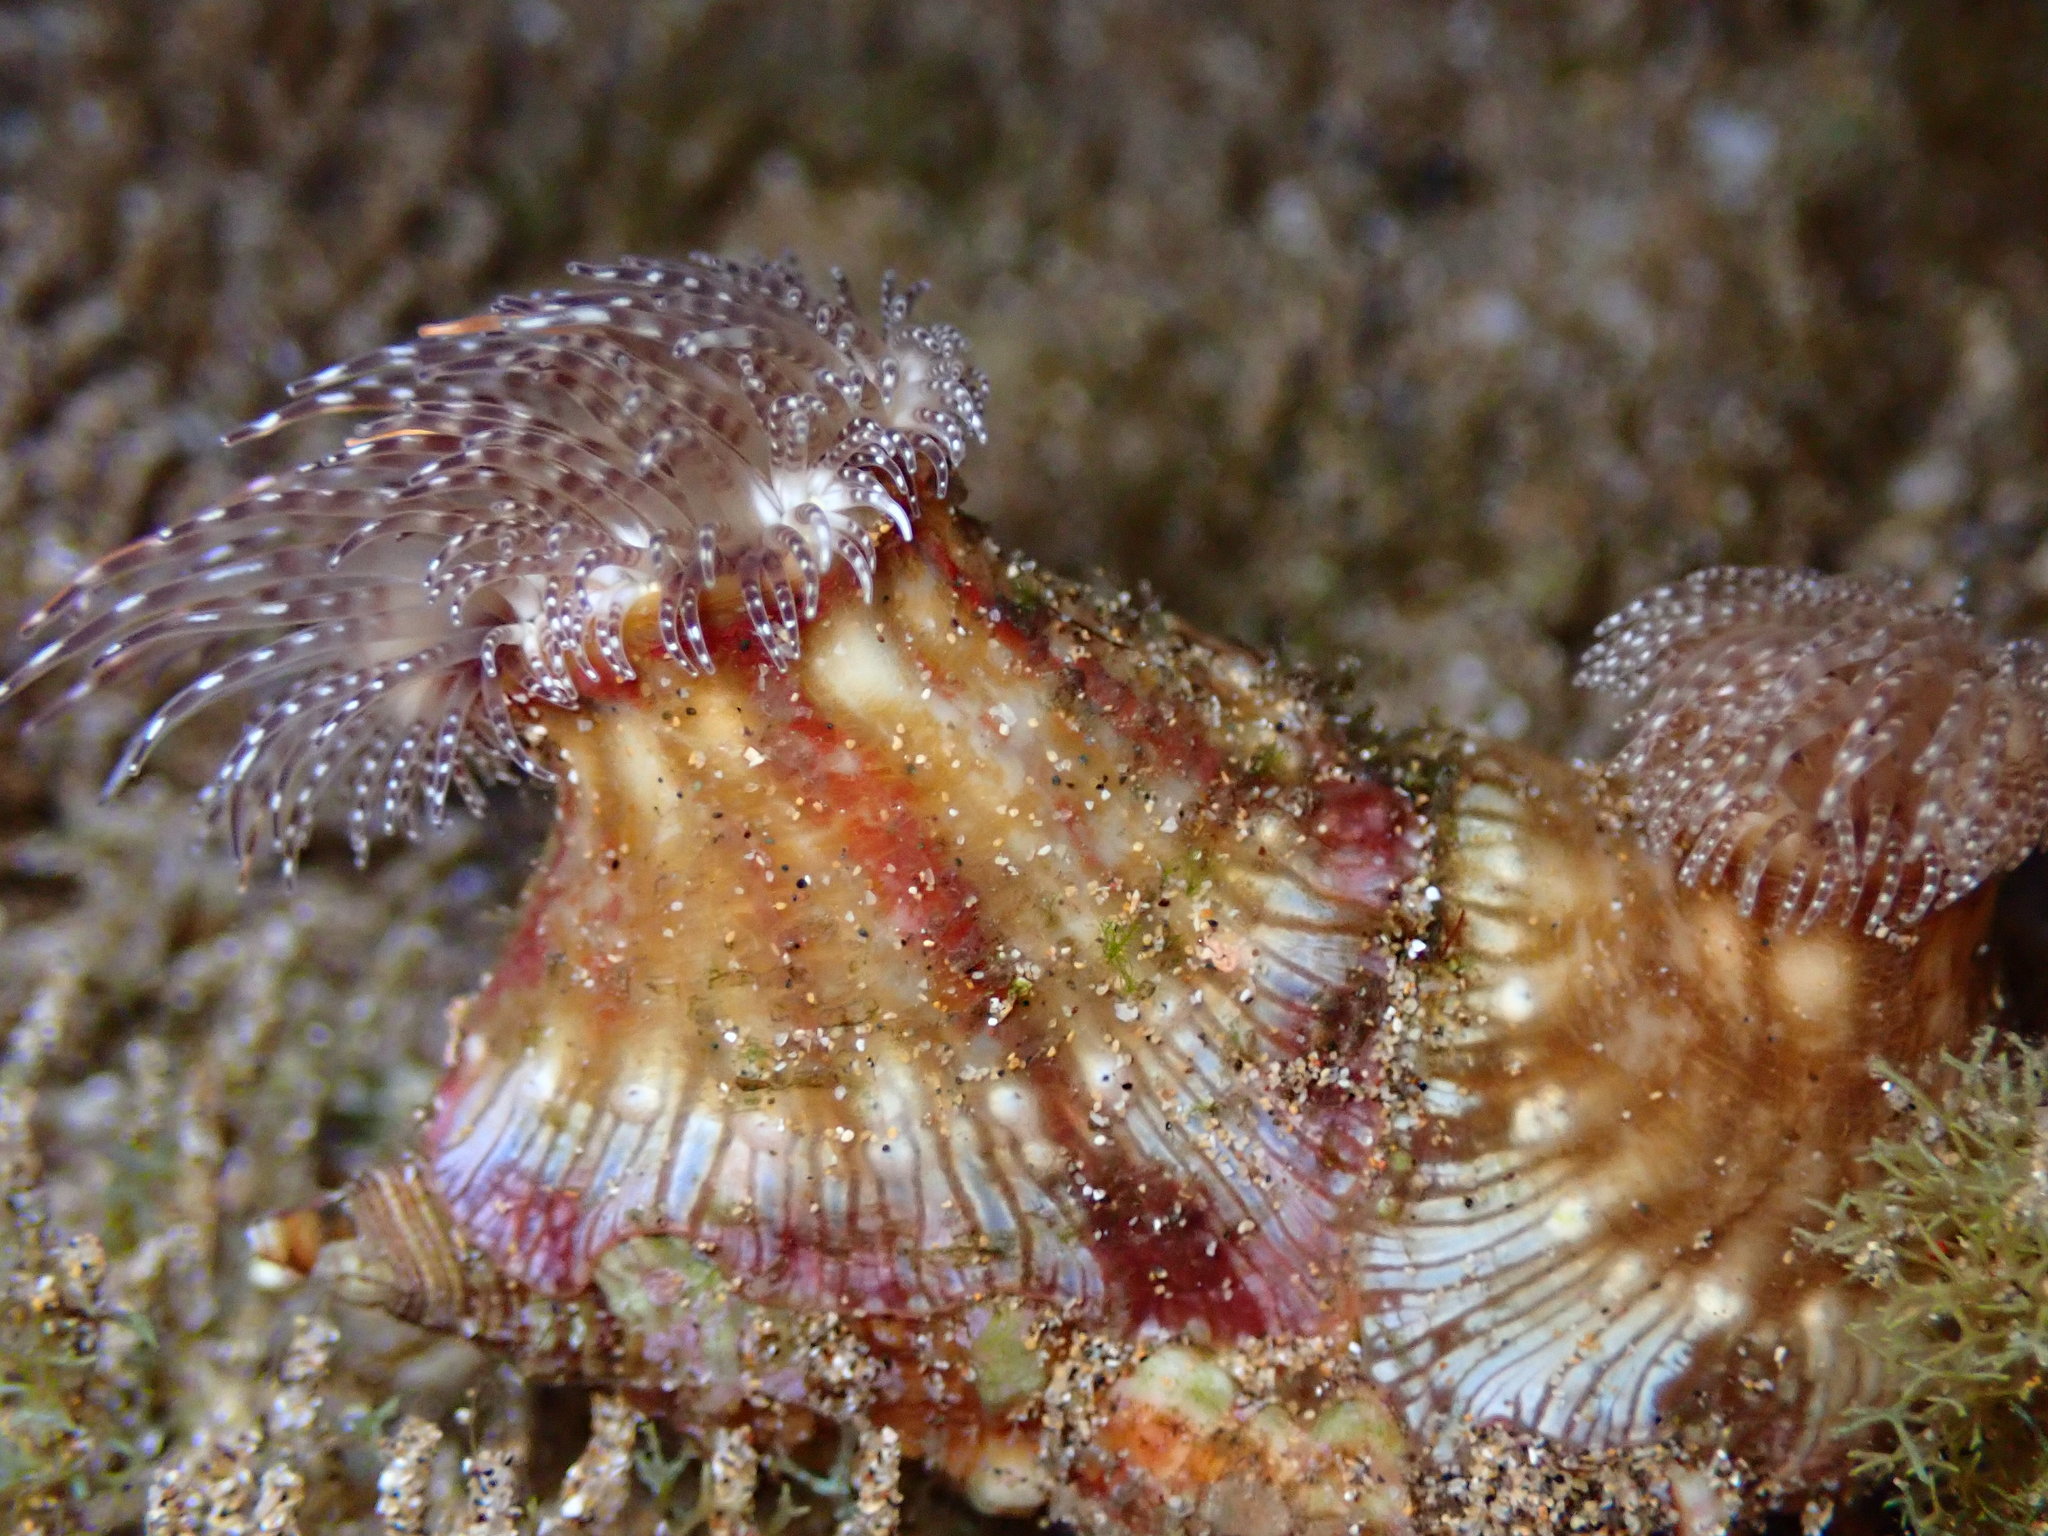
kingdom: Animalia
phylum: Cnidaria
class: Anthozoa
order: Actiniaria
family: Hormathiidae
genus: Calliactis
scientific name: Calliactis polypus
